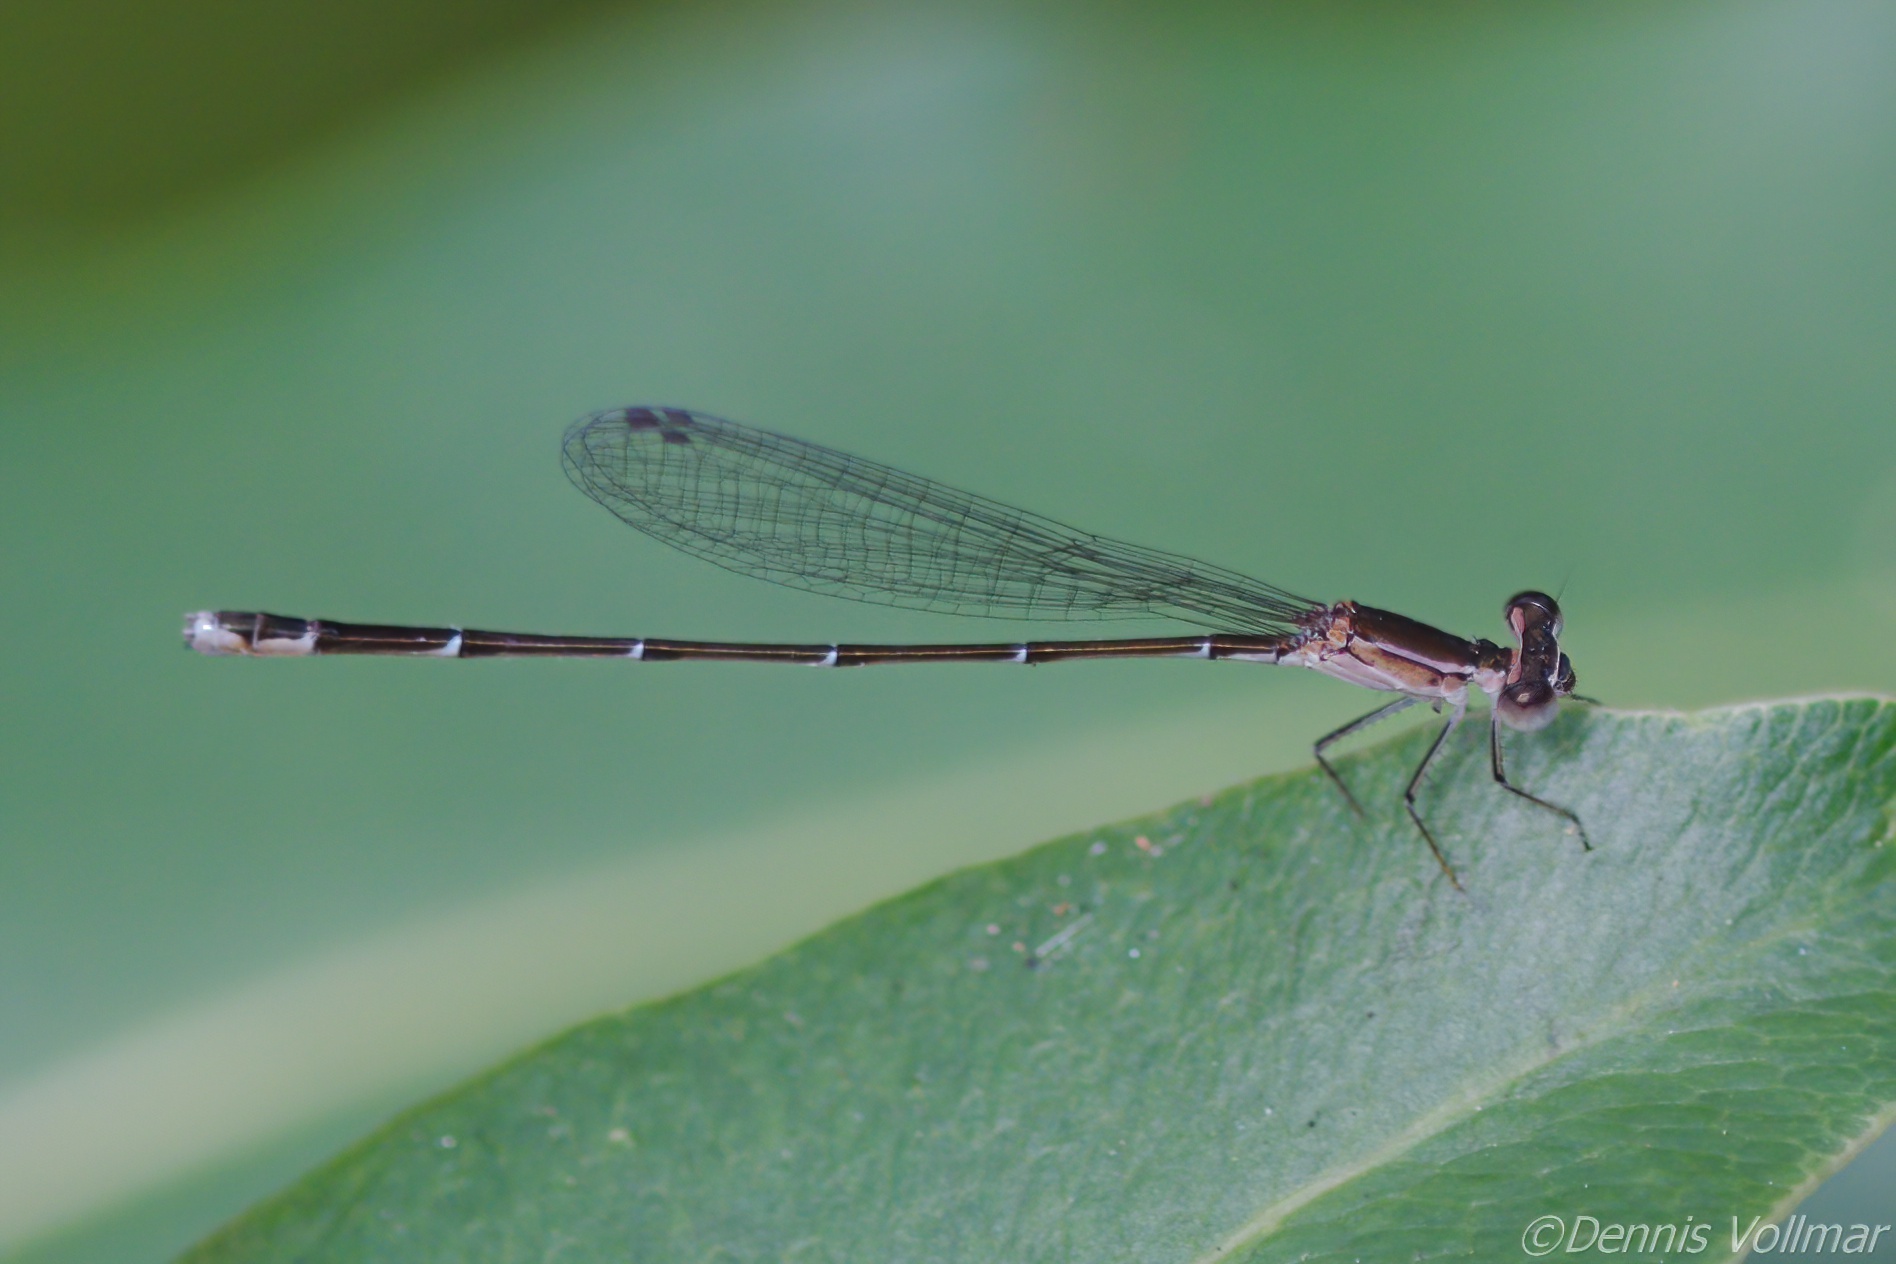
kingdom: Animalia
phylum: Arthropoda
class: Insecta
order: Odonata
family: Coenagrionidae
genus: Nehalennia
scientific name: Nehalennia pallidula
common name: Everglades sprite
